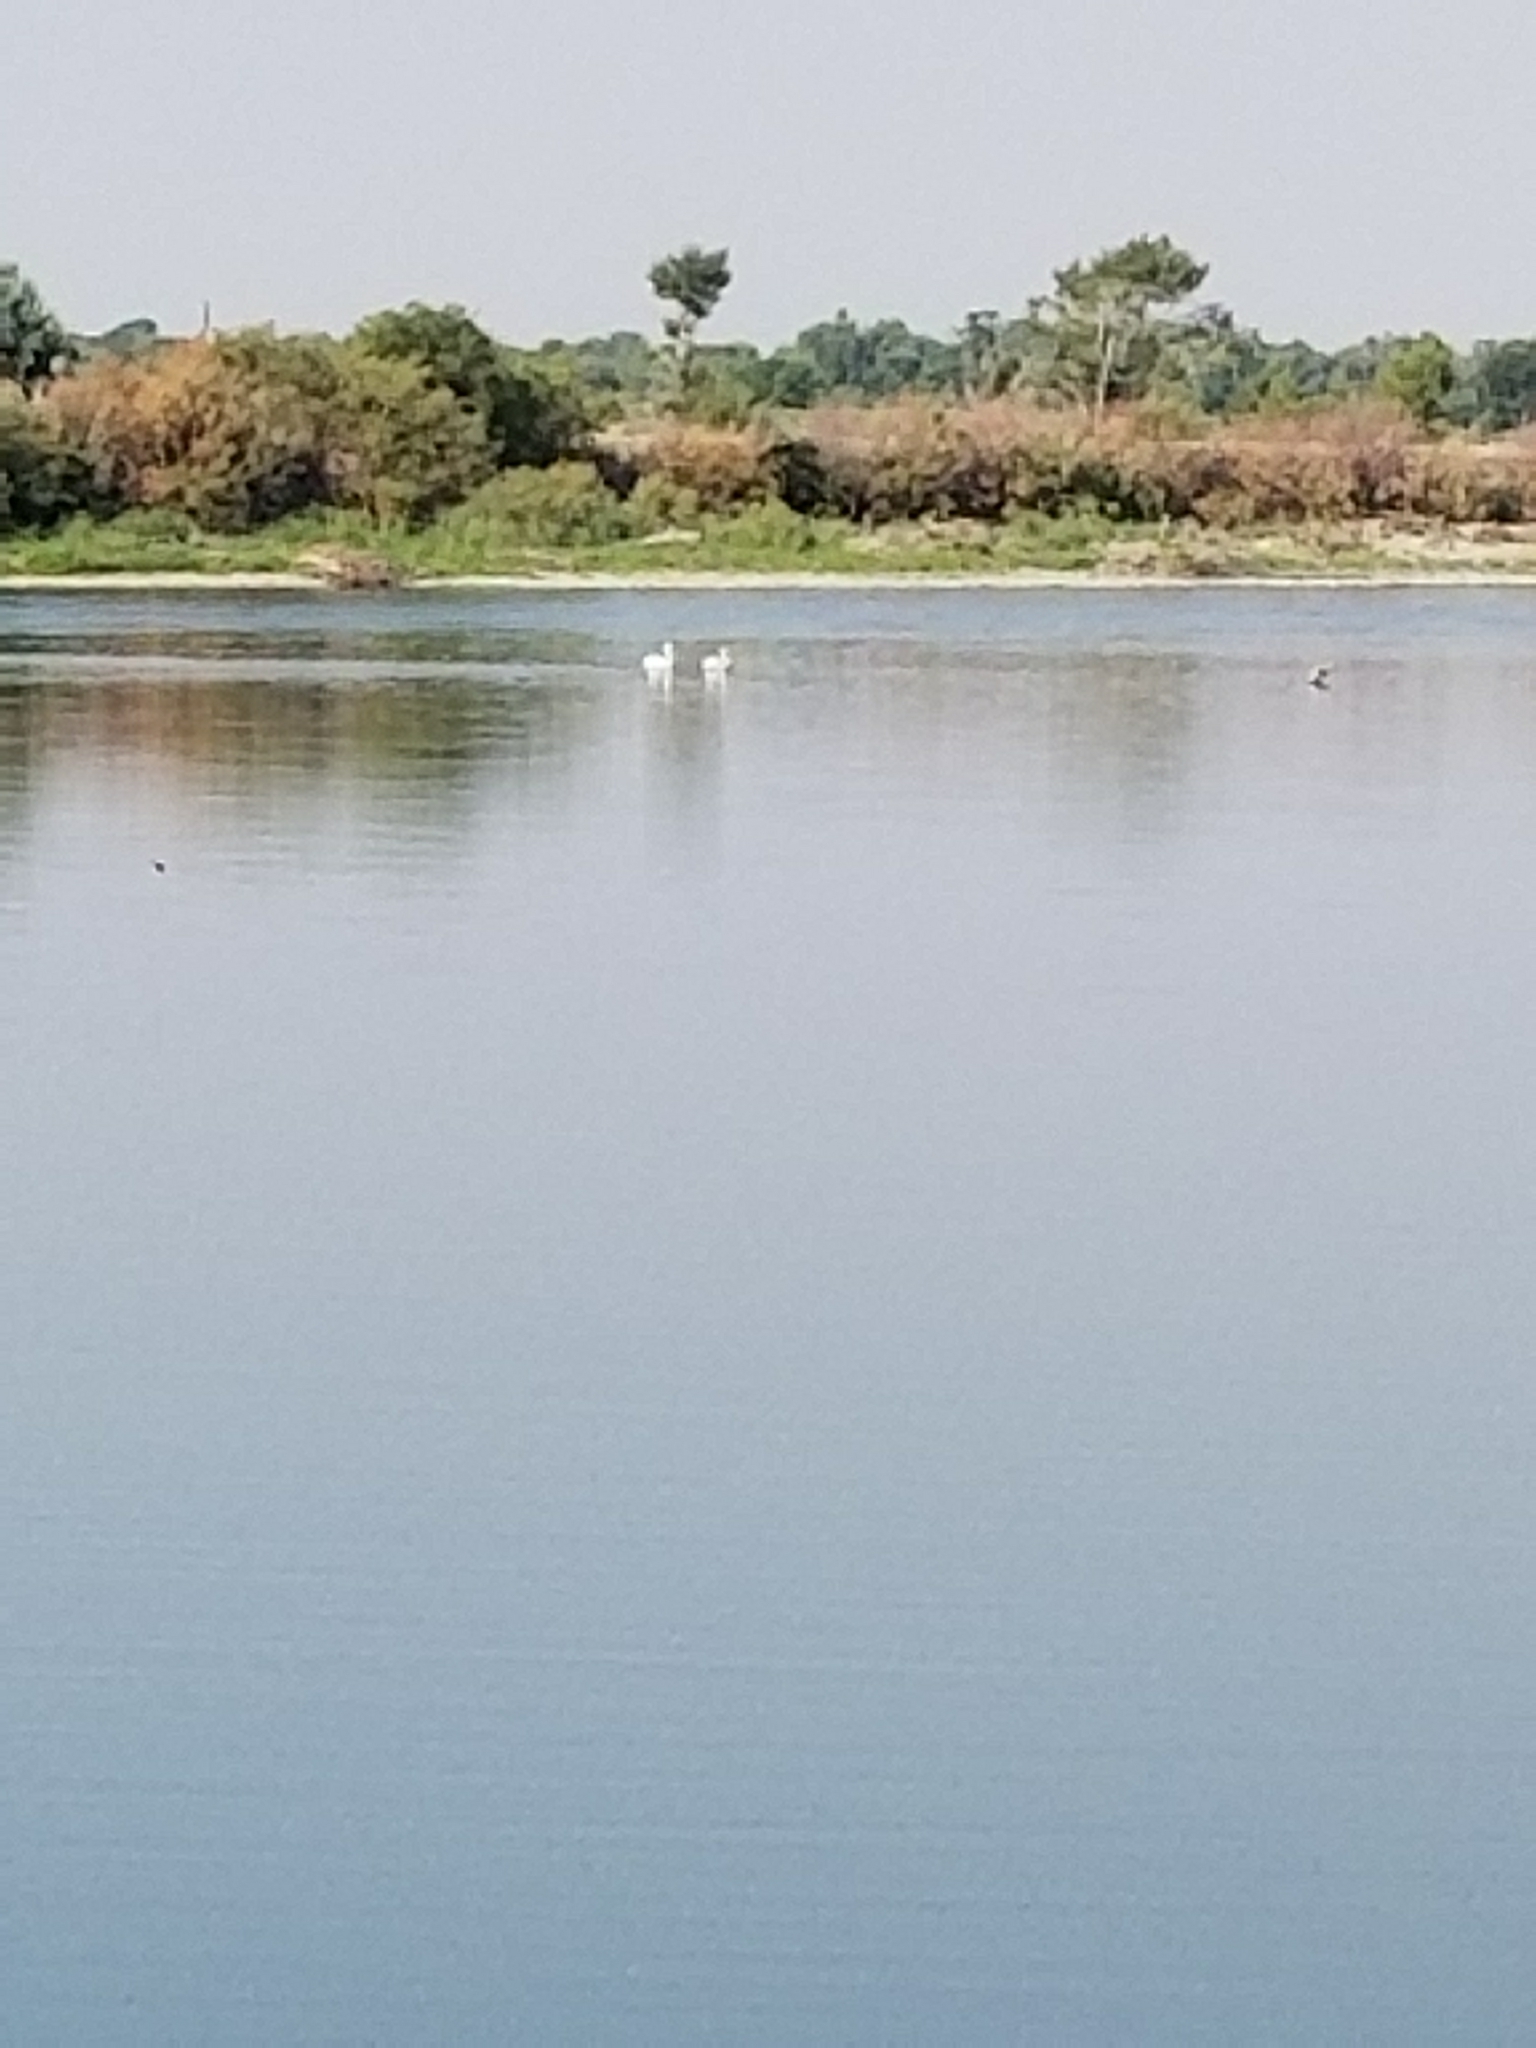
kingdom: Animalia
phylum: Chordata
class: Aves
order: Pelecaniformes
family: Pelecanidae
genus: Pelecanus
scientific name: Pelecanus erythrorhynchos
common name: American white pelican
